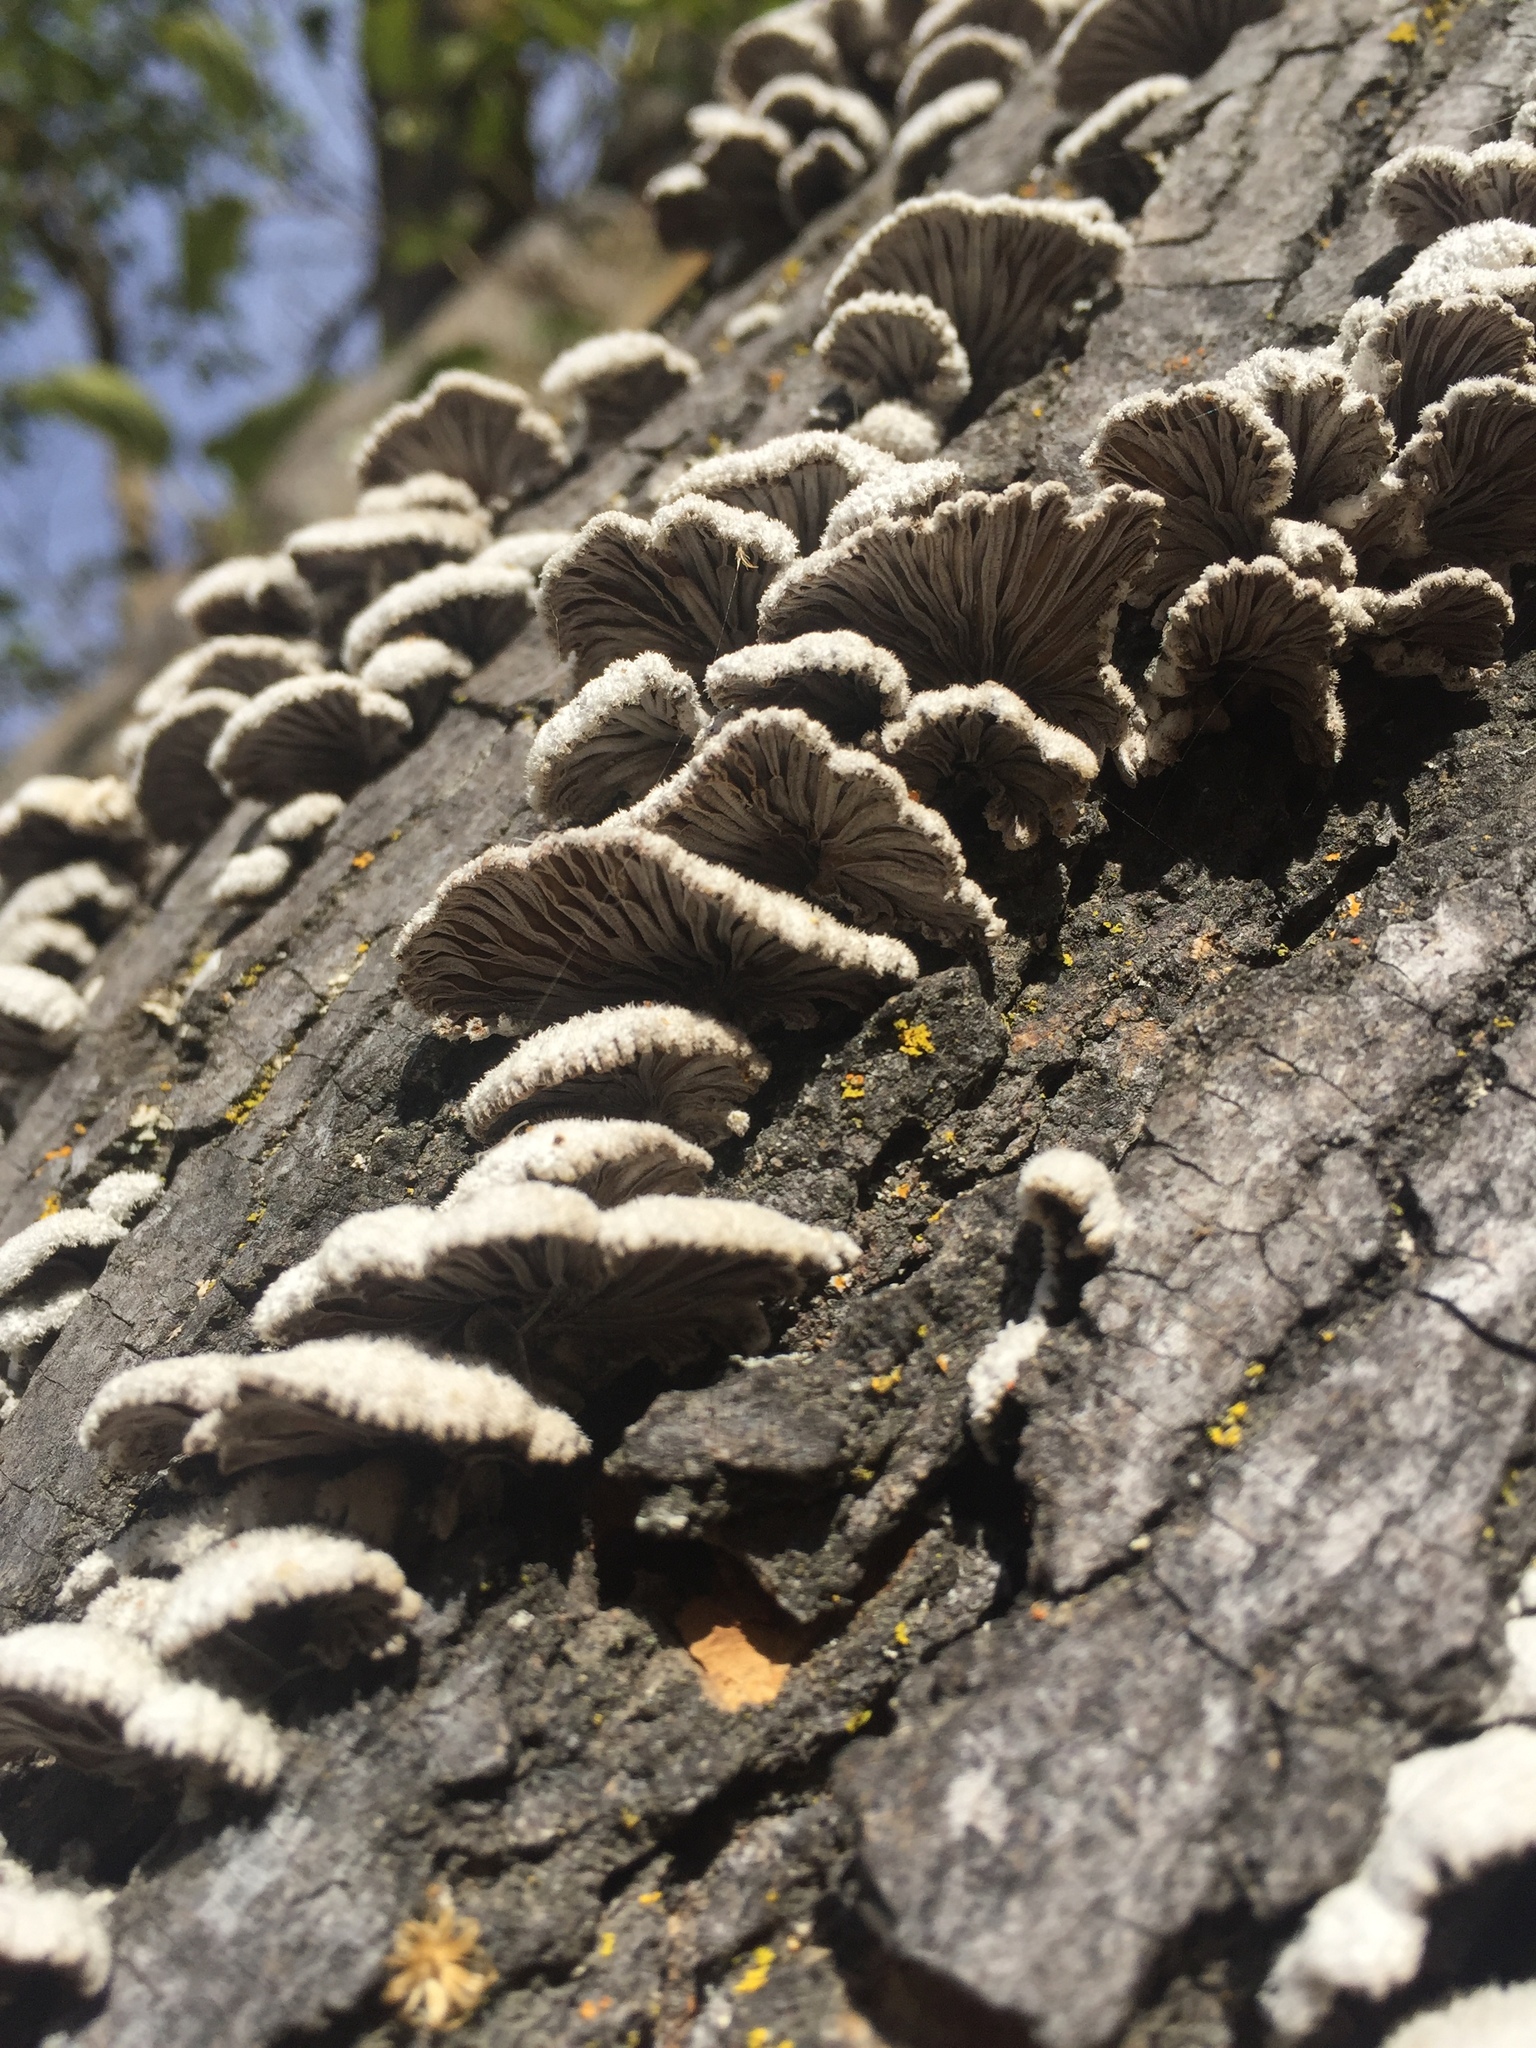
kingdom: Fungi
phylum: Basidiomycota
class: Agaricomycetes
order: Agaricales
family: Schizophyllaceae
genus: Schizophyllum
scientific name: Schizophyllum commune
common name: Common porecrust
